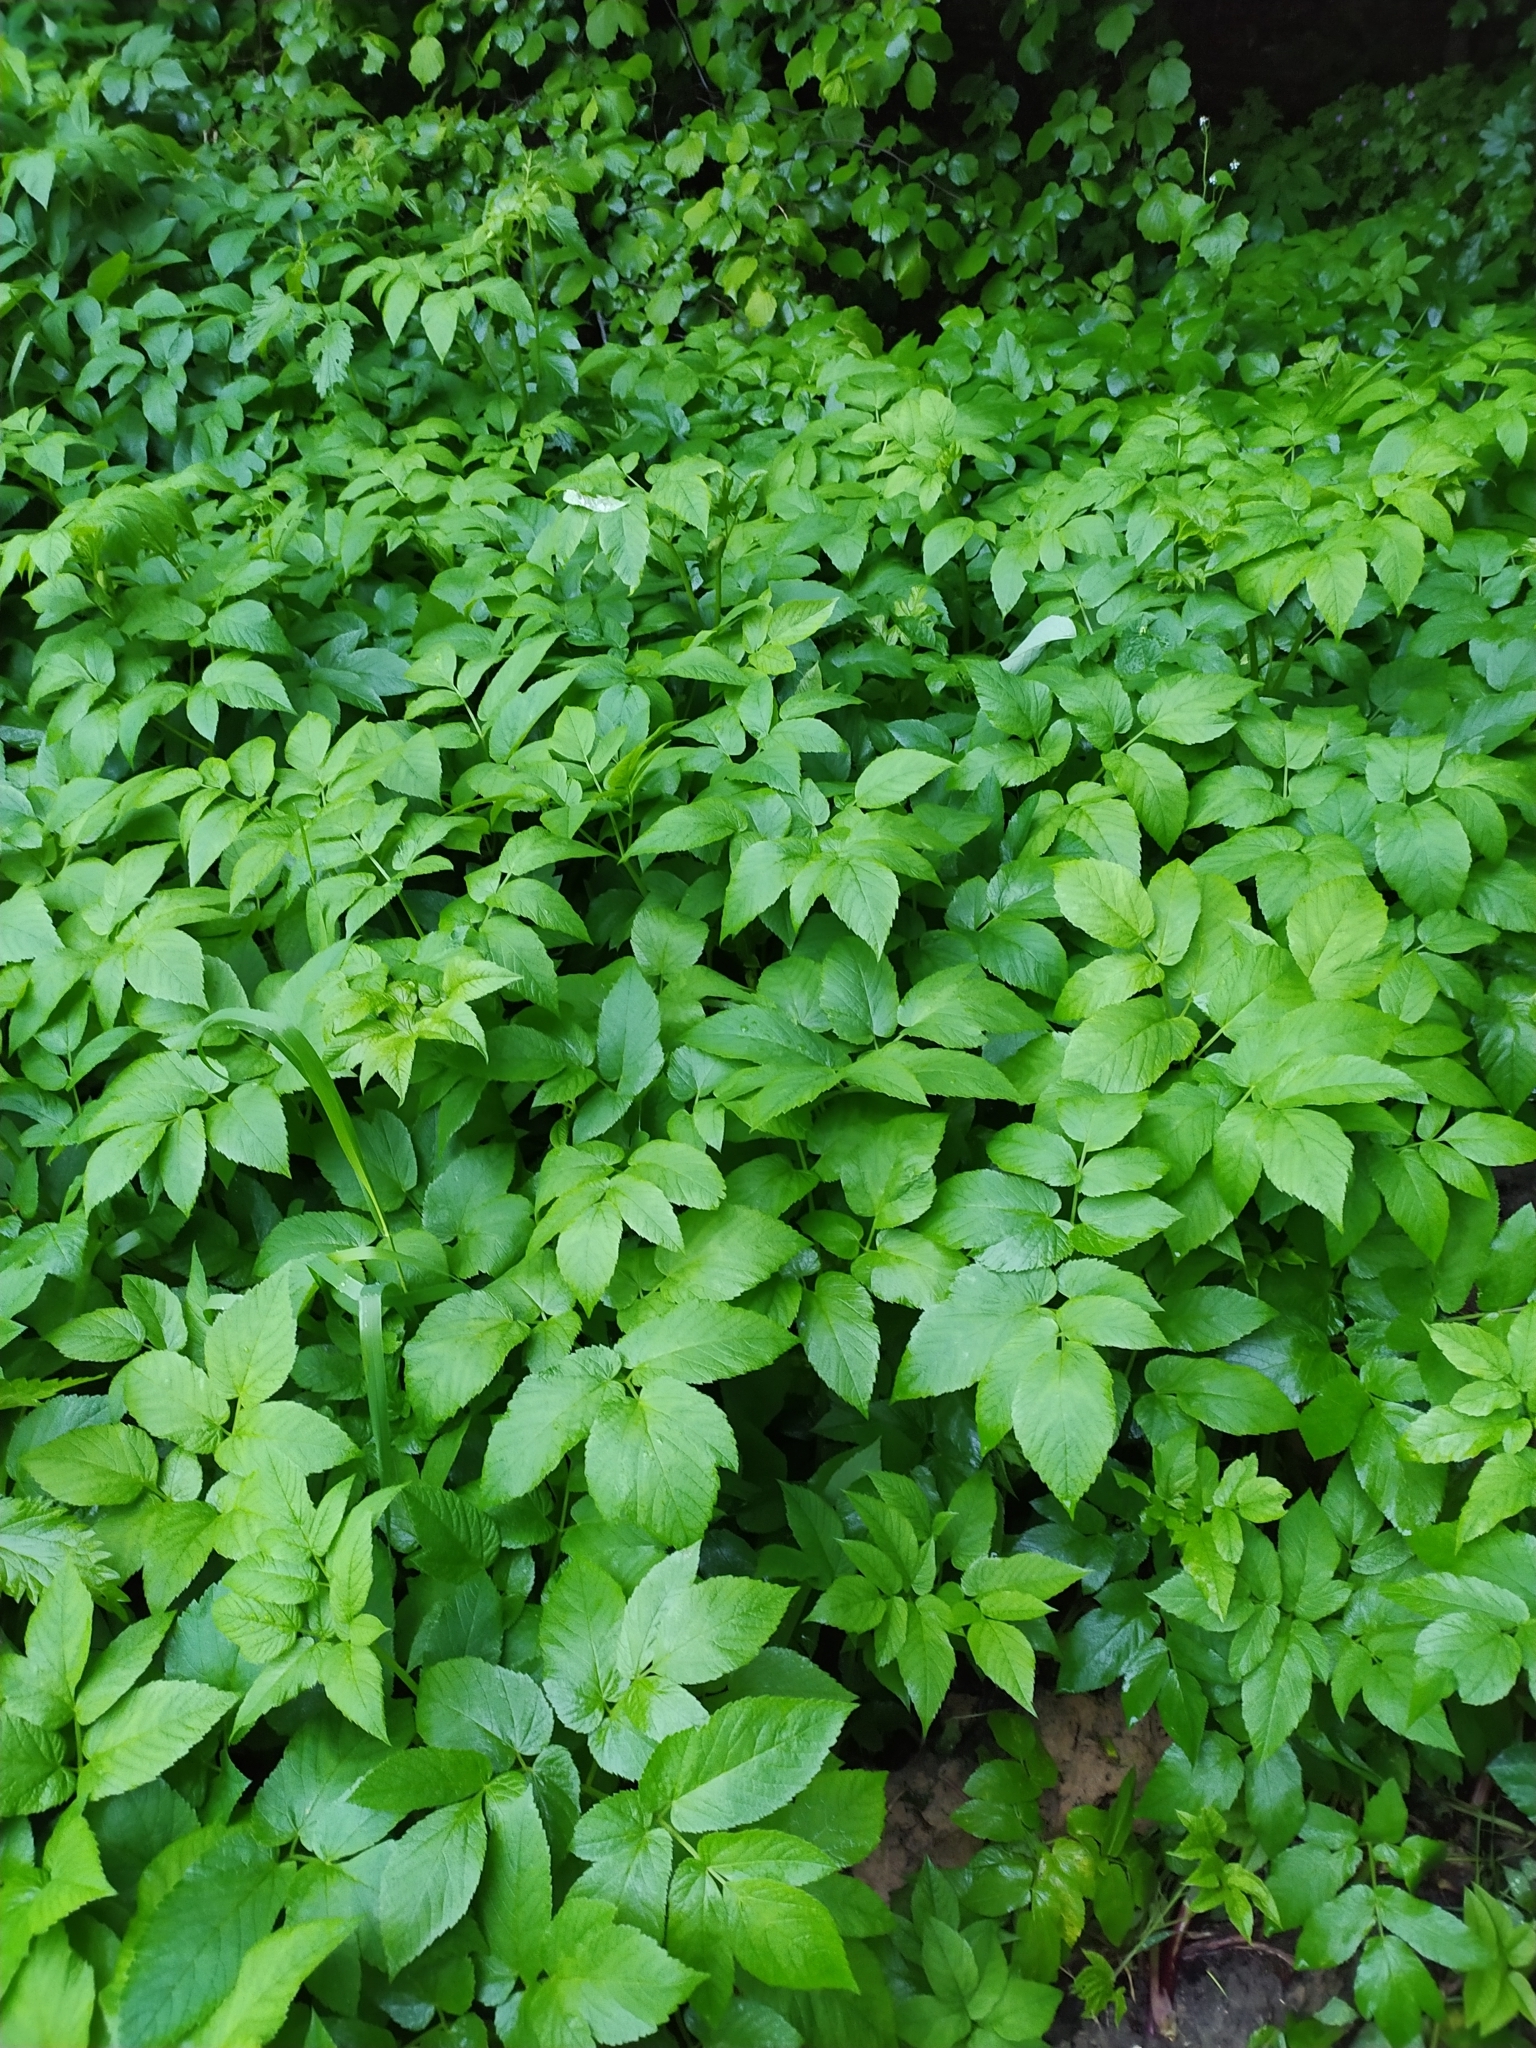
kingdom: Plantae
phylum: Tracheophyta
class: Magnoliopsida
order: Apiales
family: Apiaceae
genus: Aegopodium
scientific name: Aegopodium podagraria
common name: Ground-elder
